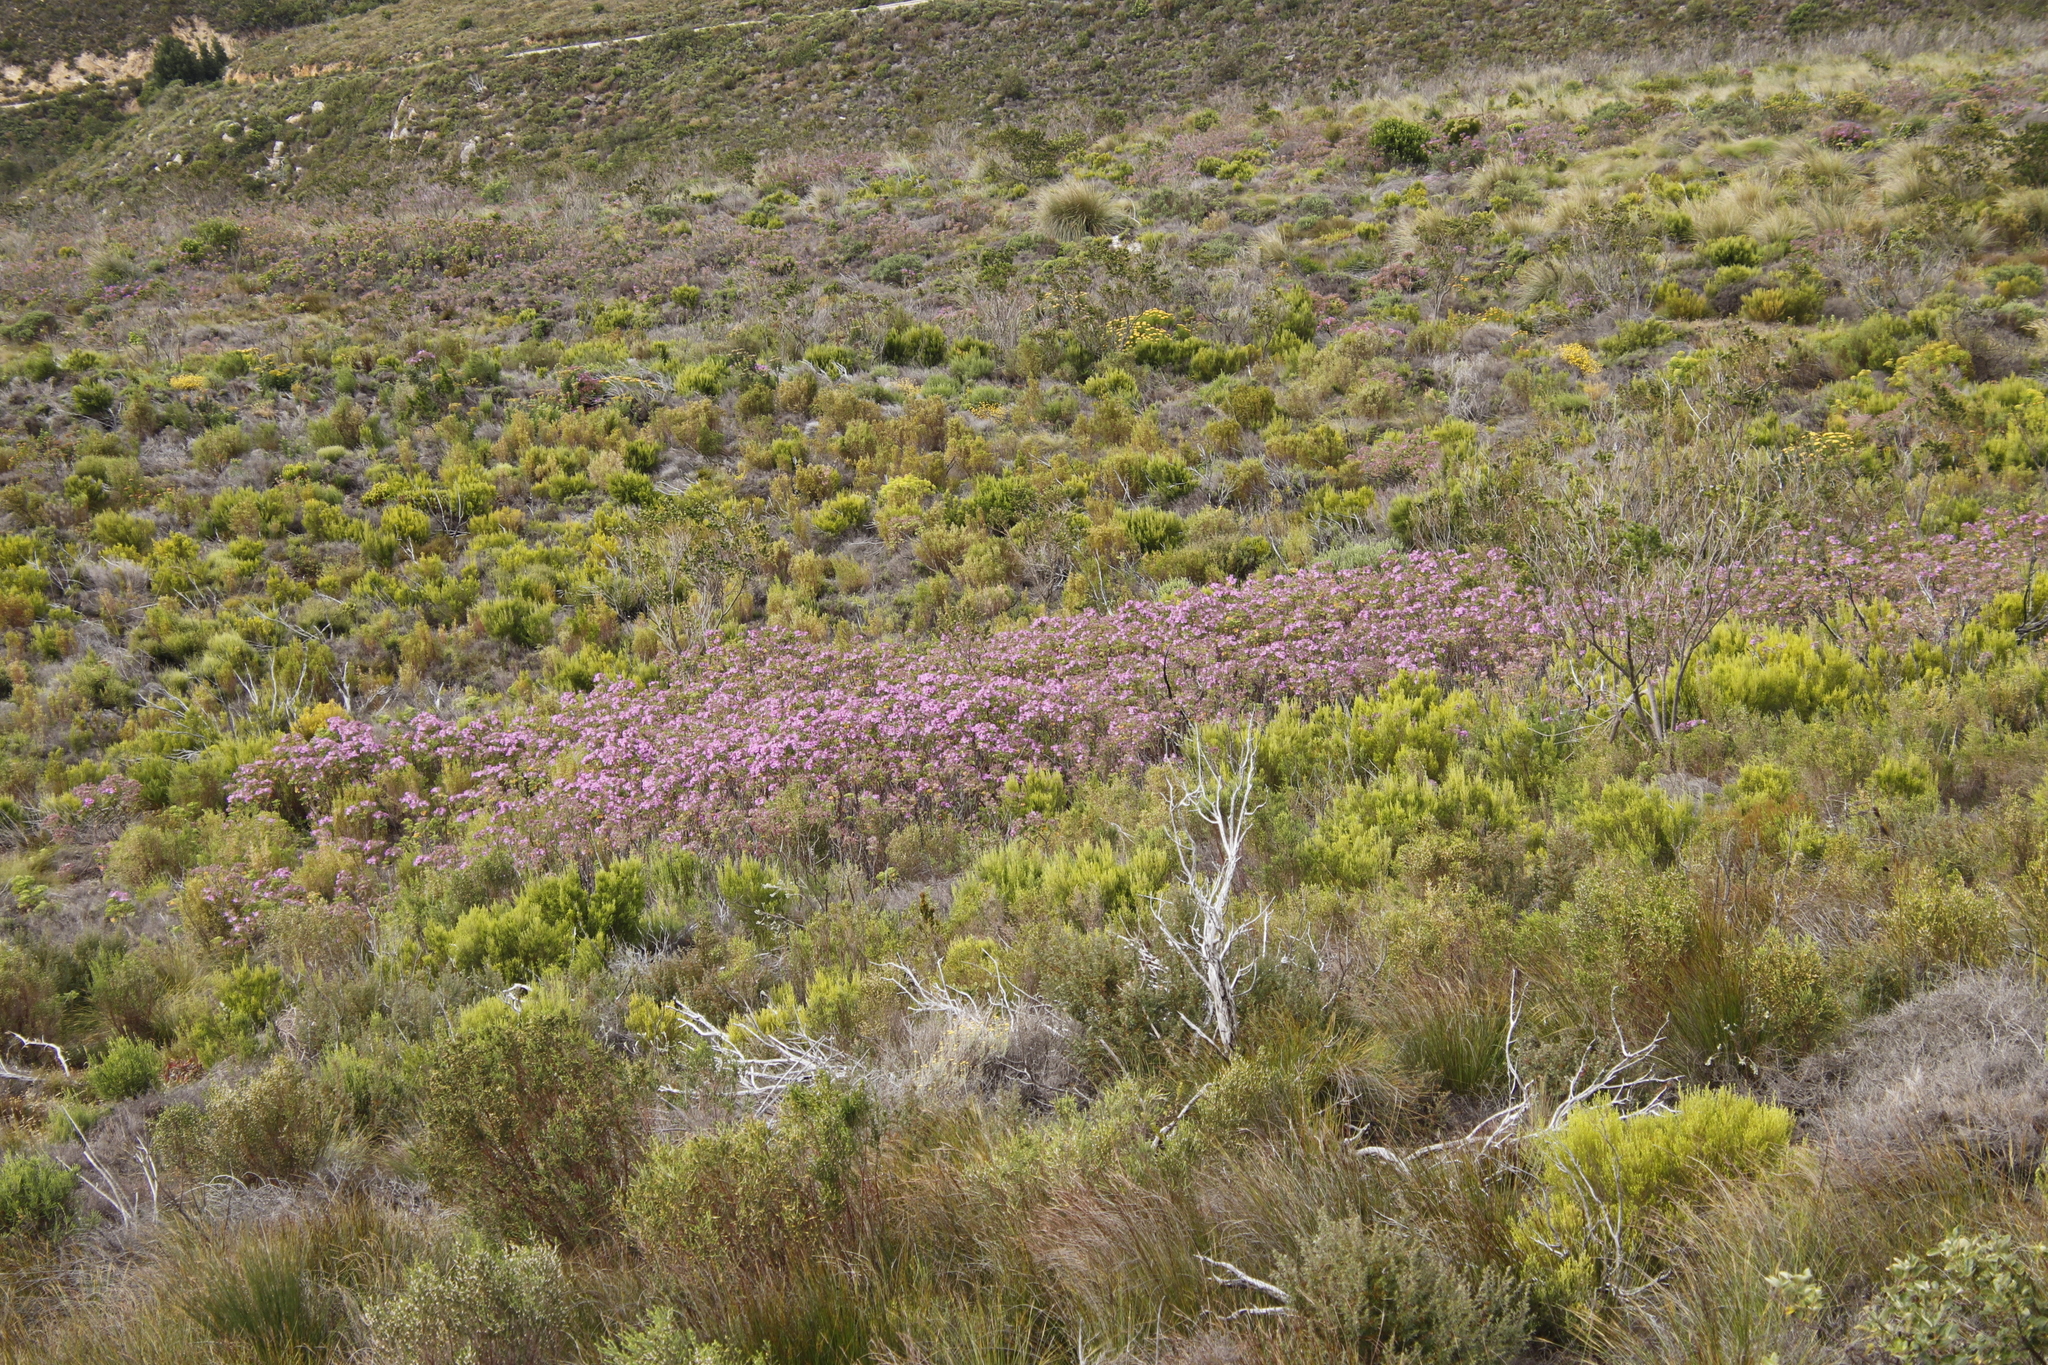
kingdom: Plantae
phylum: Tracheophyta
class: Magnoliopsida
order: Geraniales
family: Geraniaceae
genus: Pelargonium
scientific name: Pelargonium cucullatum
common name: Tree pelargonium
